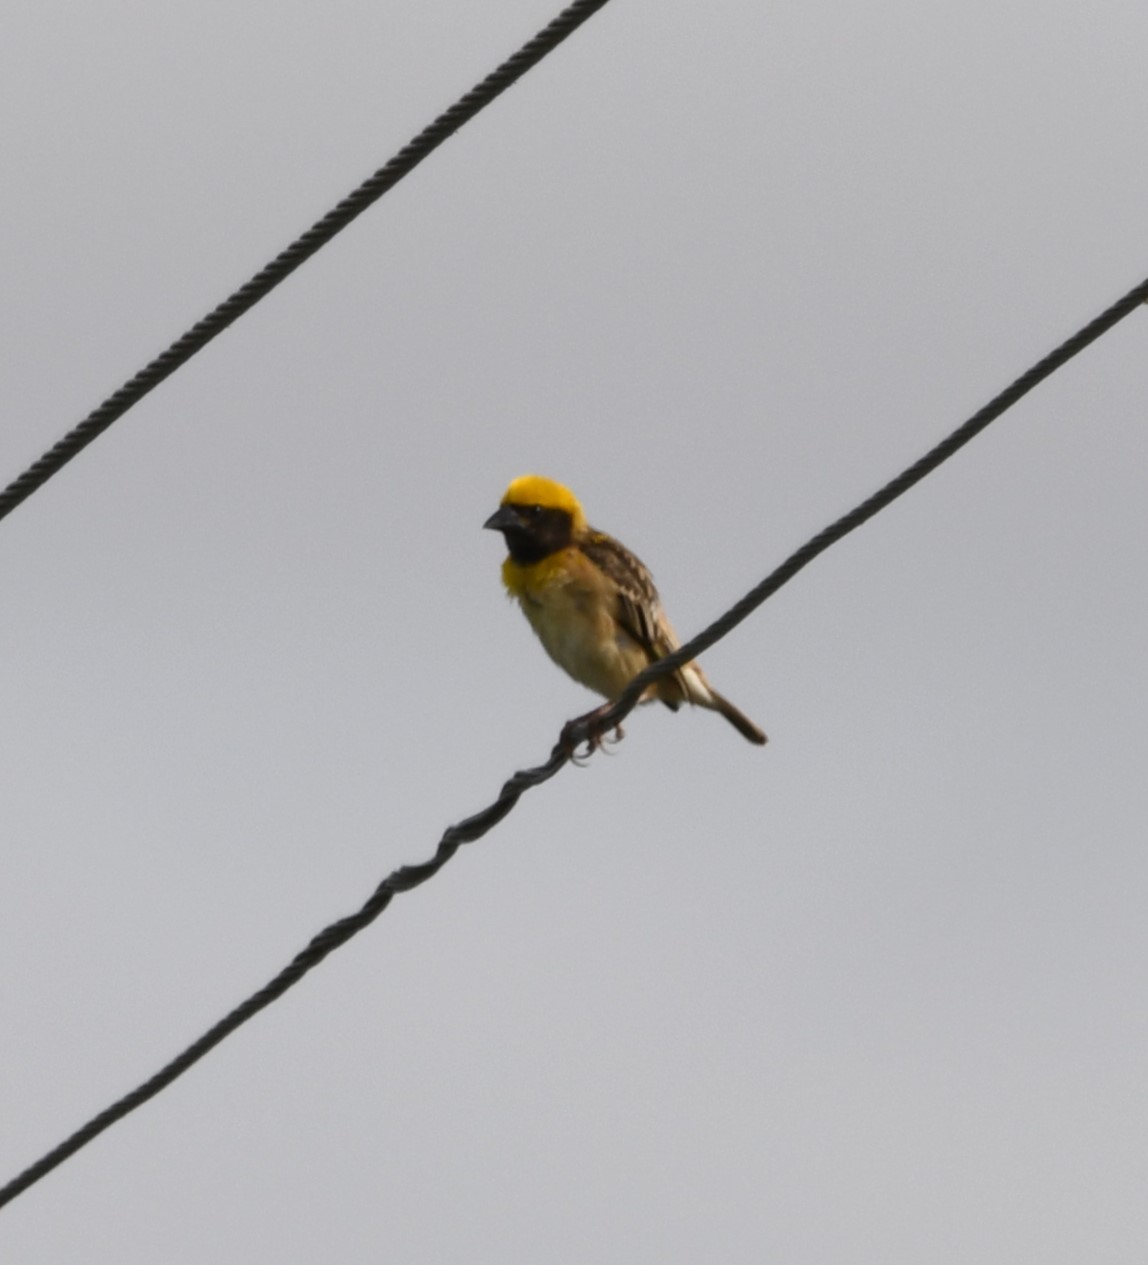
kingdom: Animalia
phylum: Chordata
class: Aves
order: Passeriformes
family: Ploceidae
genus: Ploceus
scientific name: Ploceus philippinus
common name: Baya weaver
